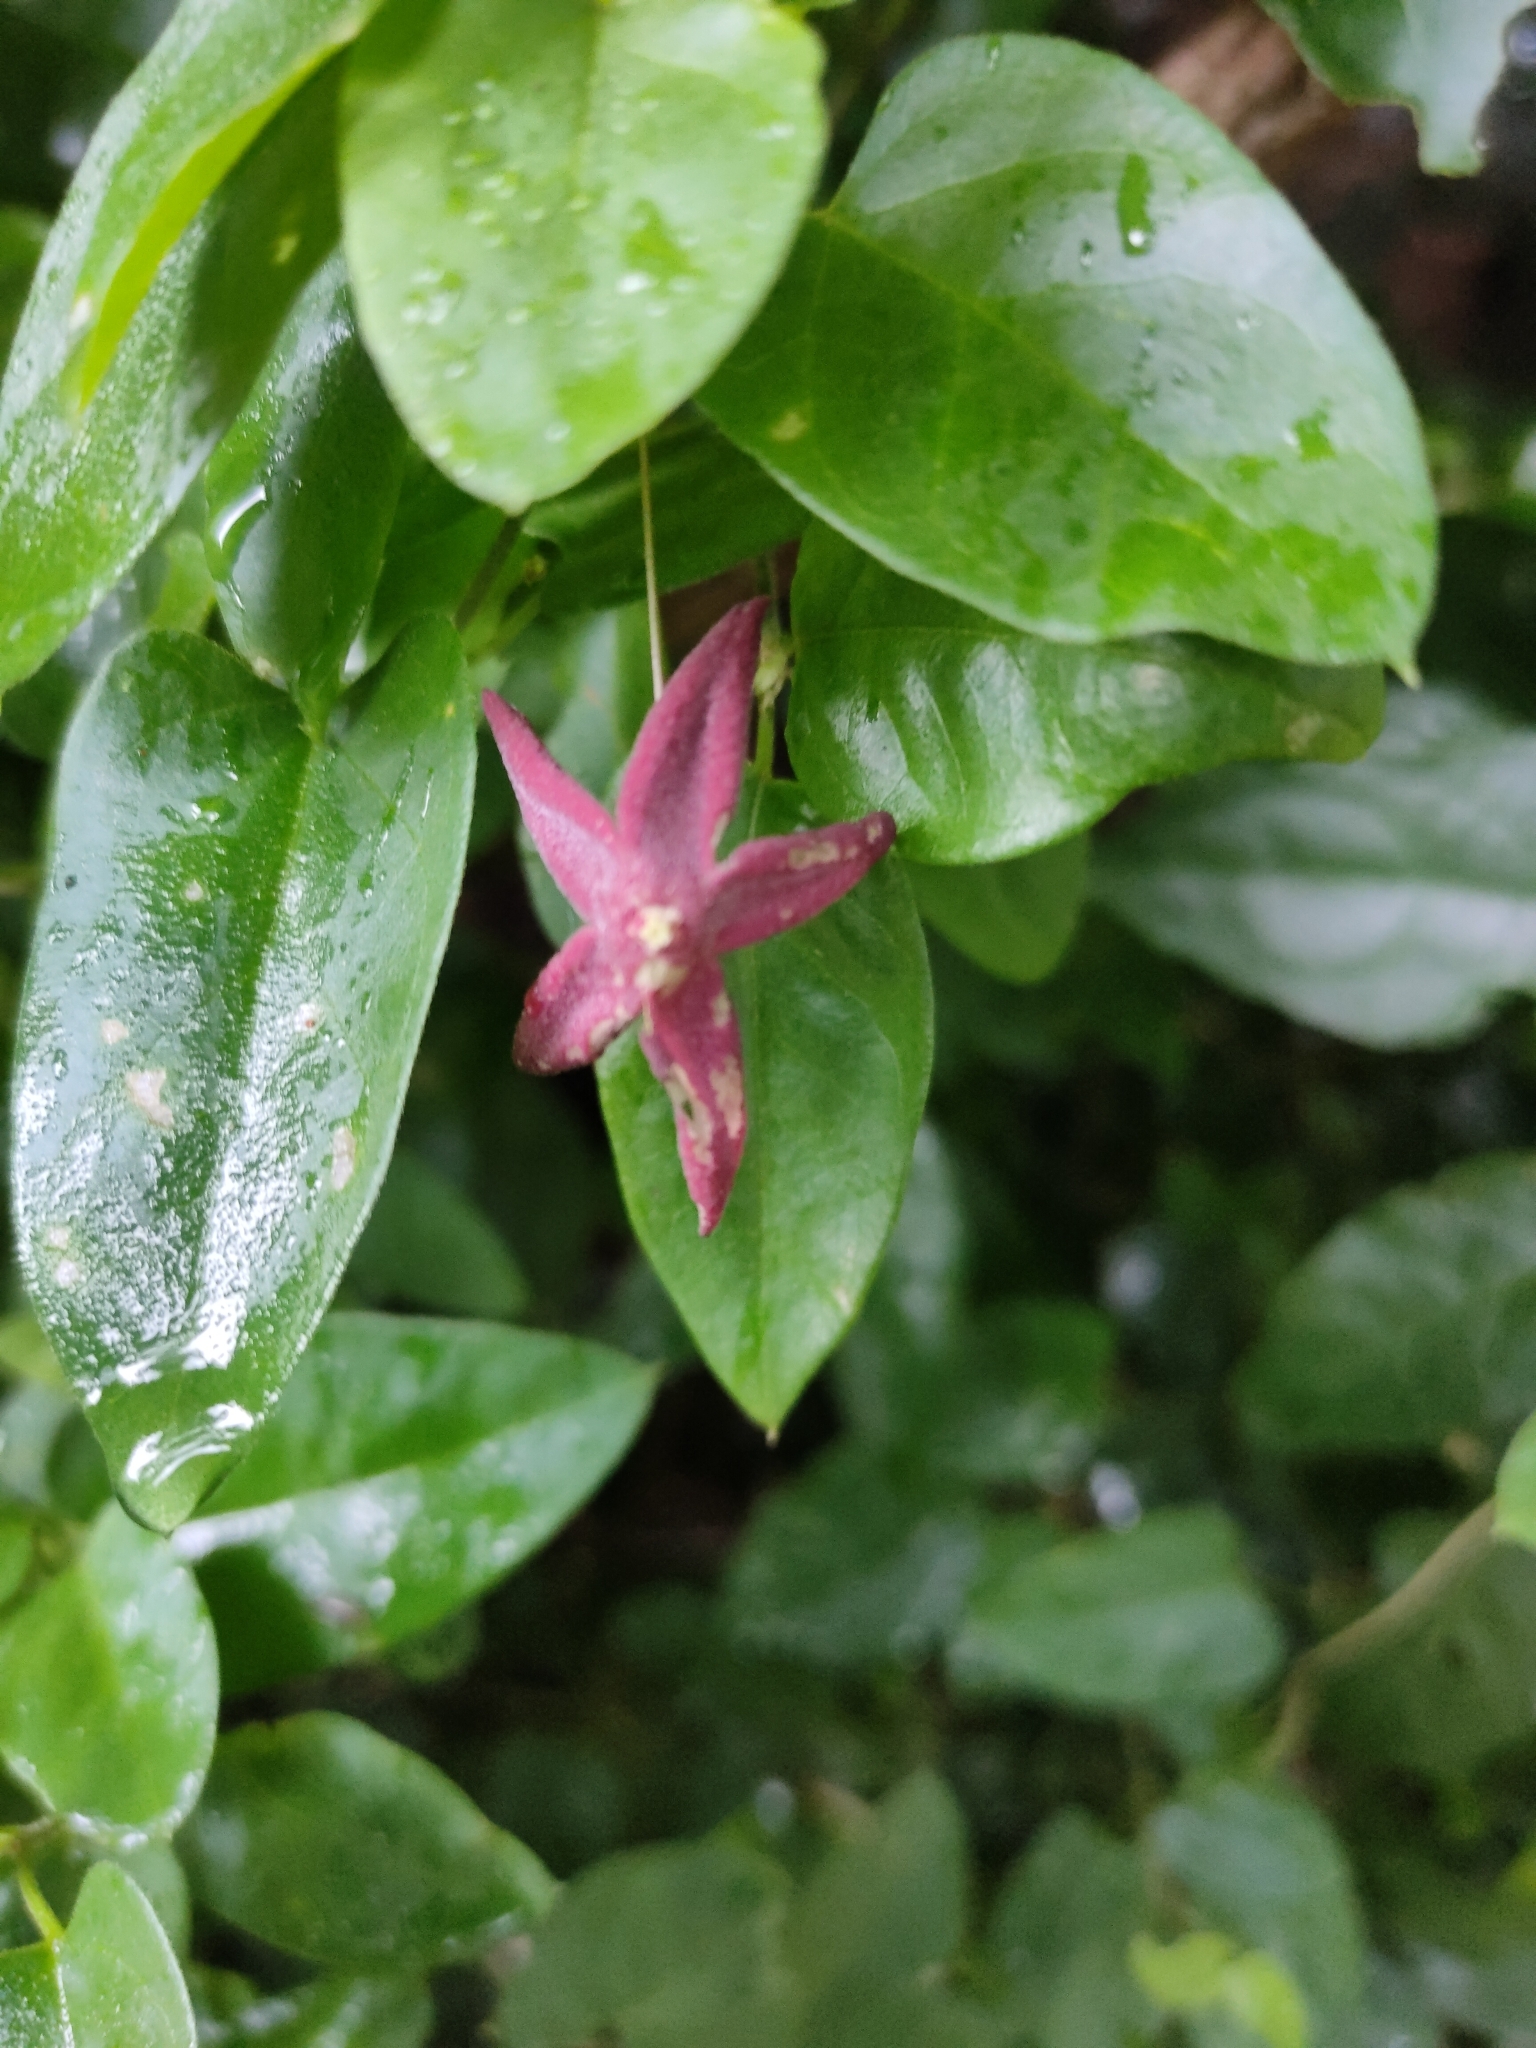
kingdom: Plantae
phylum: Tracheophyta
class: Magnoliopsida
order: Gentianales
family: Apocynaceae
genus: Vincetoxicum
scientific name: Vincetoxicum grandiflorum
